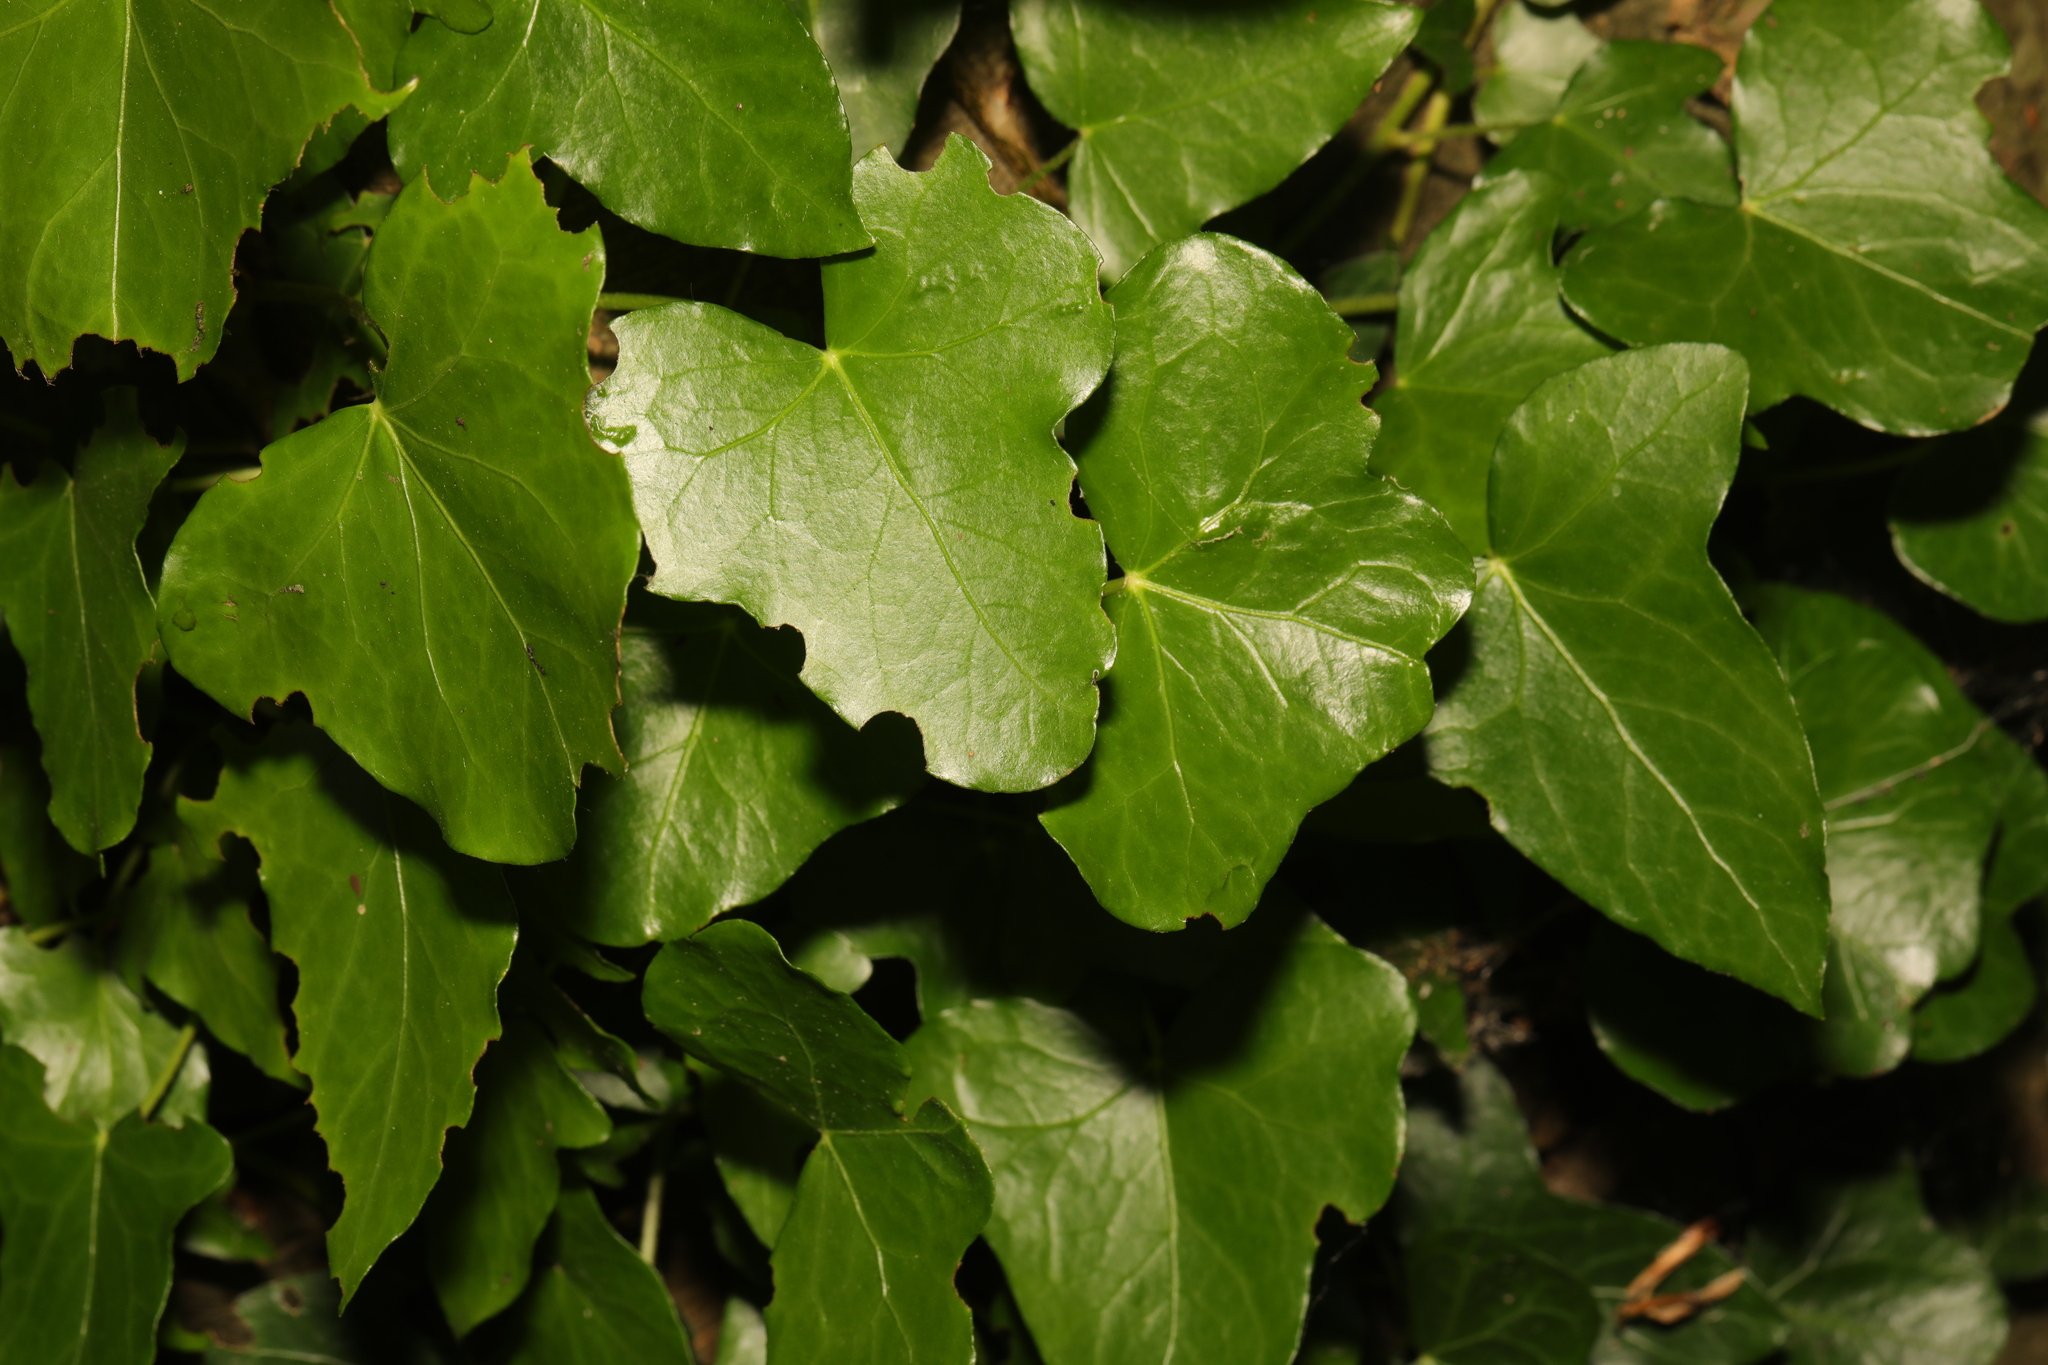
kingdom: Plantae
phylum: Tracheophyta
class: Magnoliopsida
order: Apiales
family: Araliaceae
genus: Hedera
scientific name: Hedera helix
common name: Ivy
